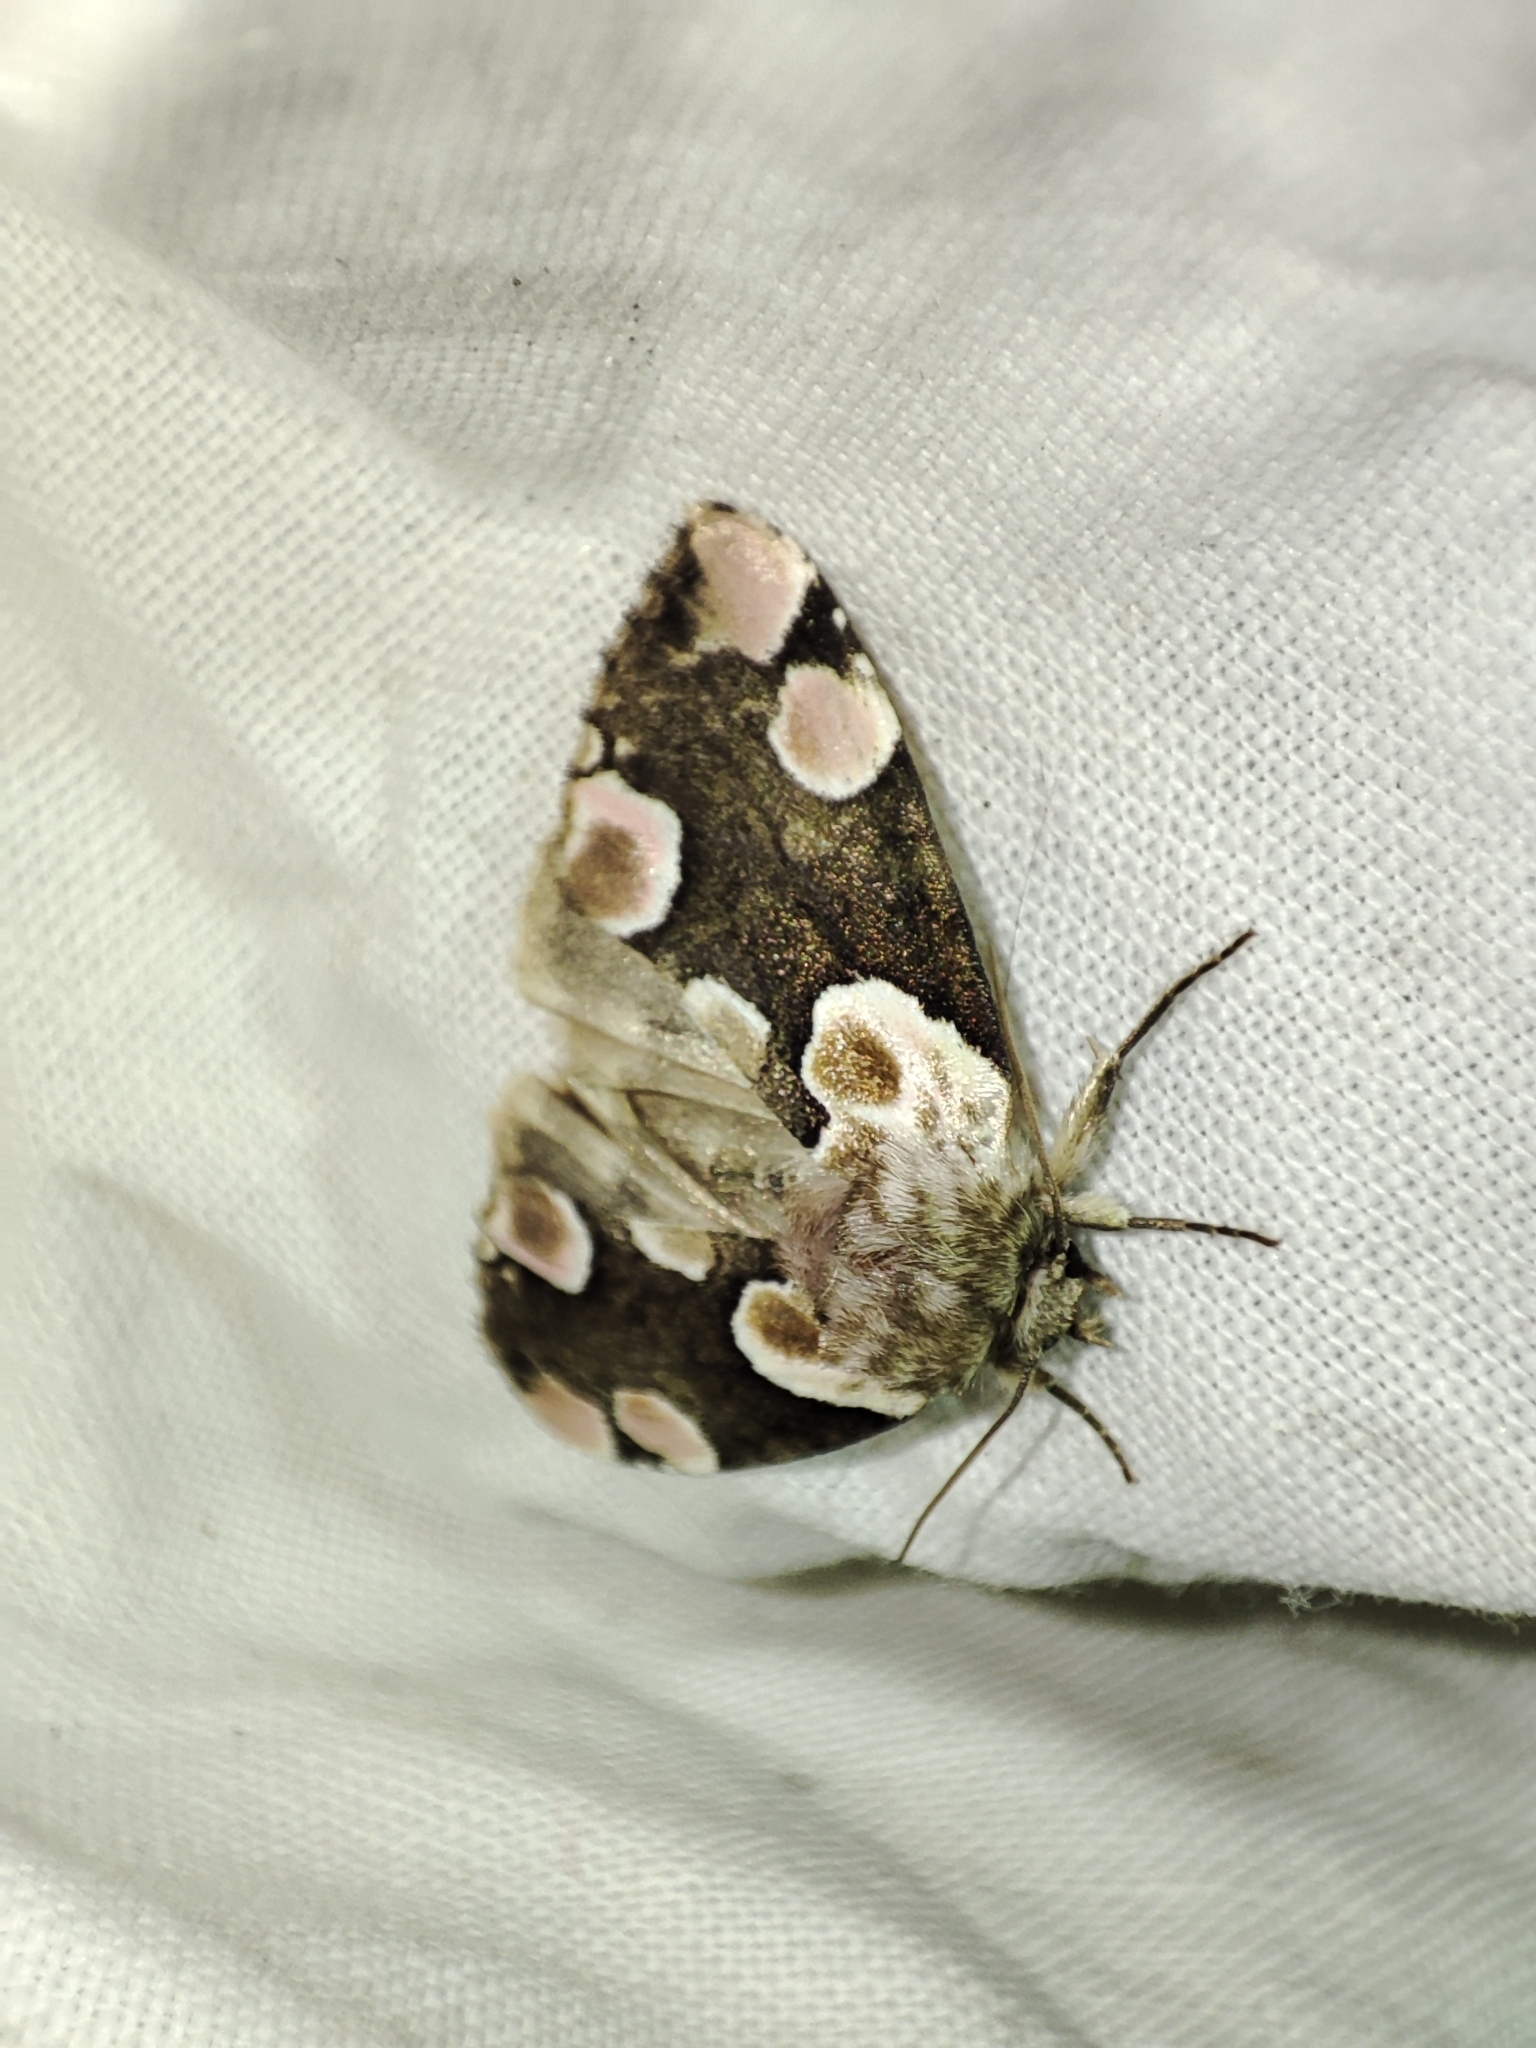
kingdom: Animalia
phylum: Arthropoda
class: Insecta
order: Lepidoptera
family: Drepanidae
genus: Thyatira
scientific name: Thyatira batis
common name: Peach blossom
